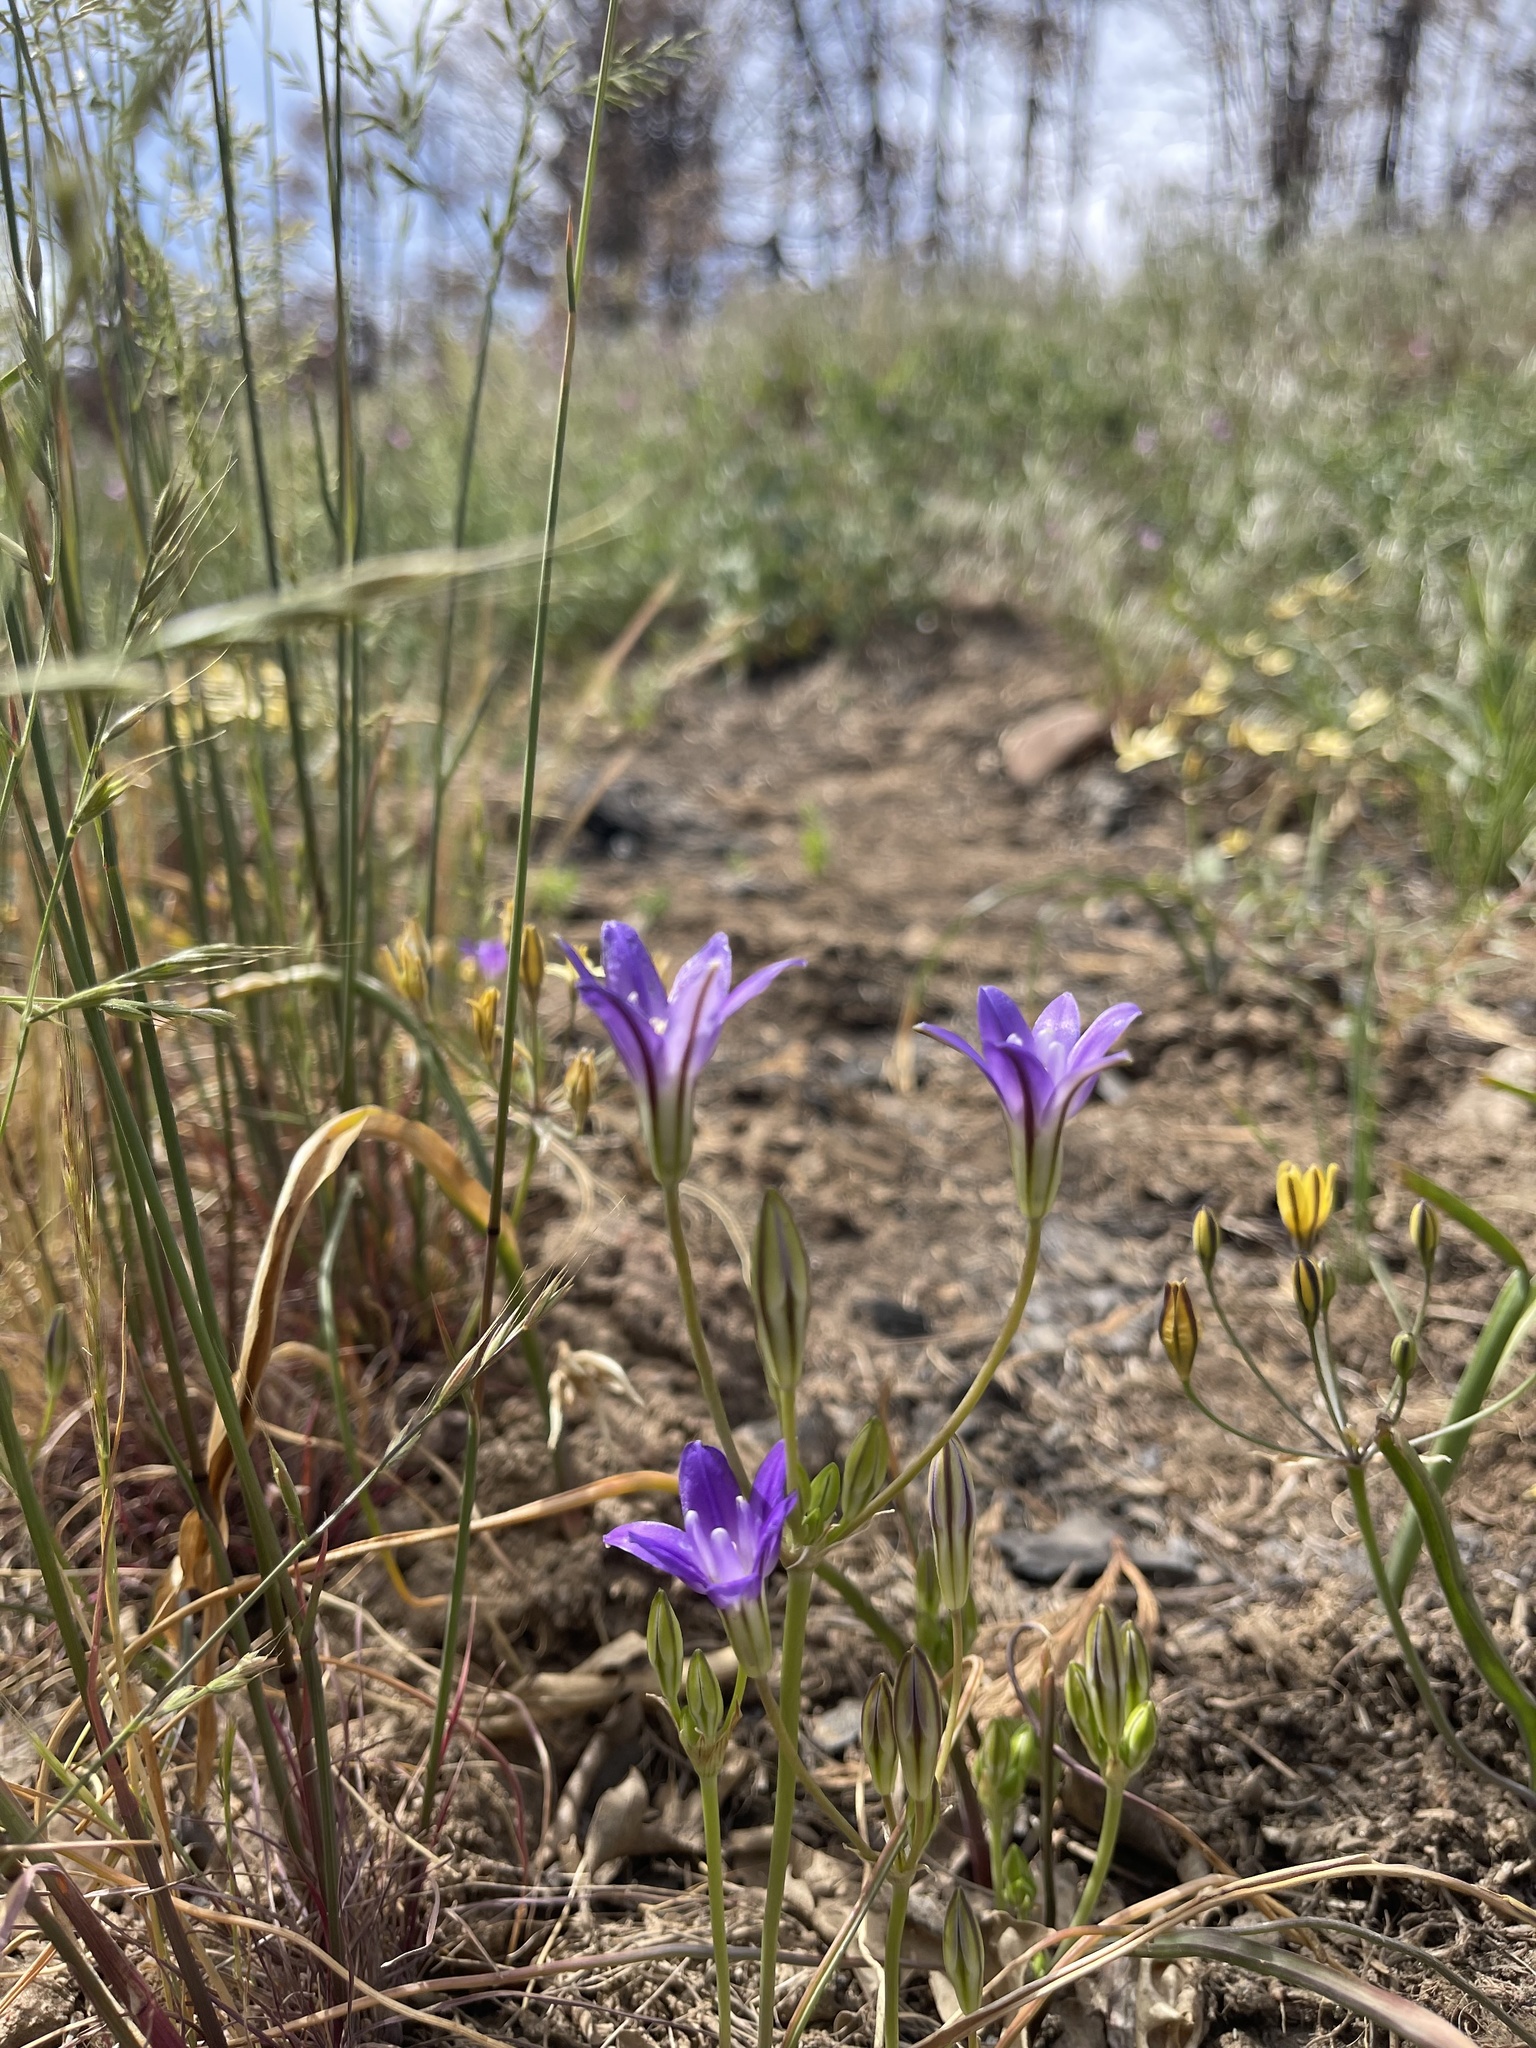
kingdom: Plantae
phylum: Tracheophyta
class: Liliopsida
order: Asparagales
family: Asparagaceae
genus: Brodiaea
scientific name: Brodiaea terrestris
